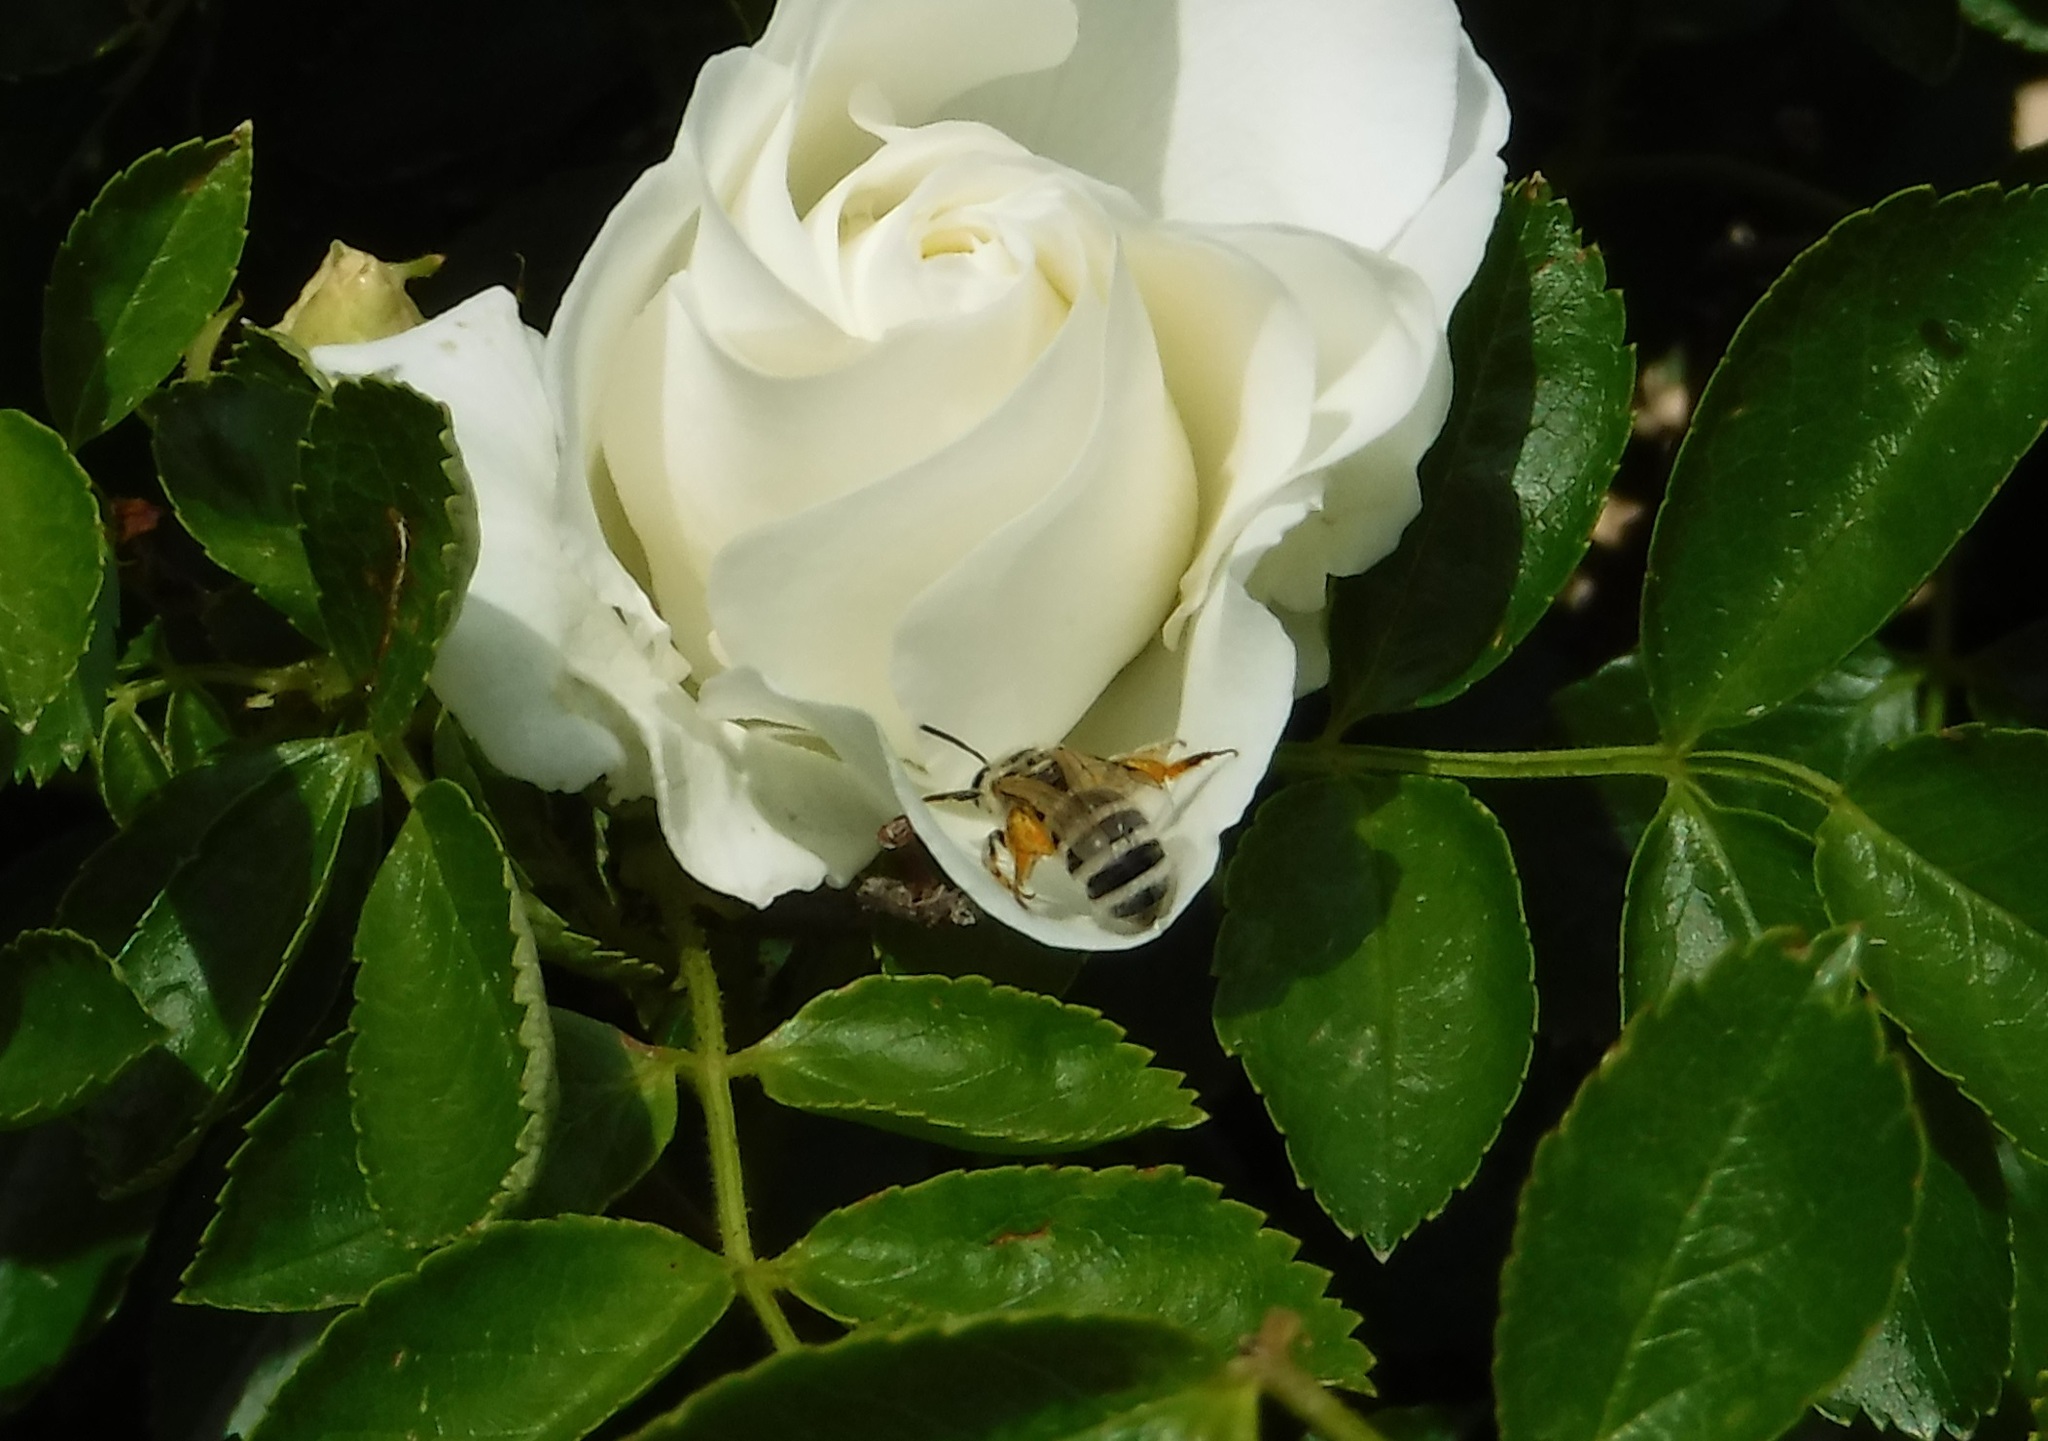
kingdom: Animalia
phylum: Arthropoda
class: Insecta
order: Hymenoptera
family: Halictidae
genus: Lasioglossum
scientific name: Lasioglossum sisymbrii
